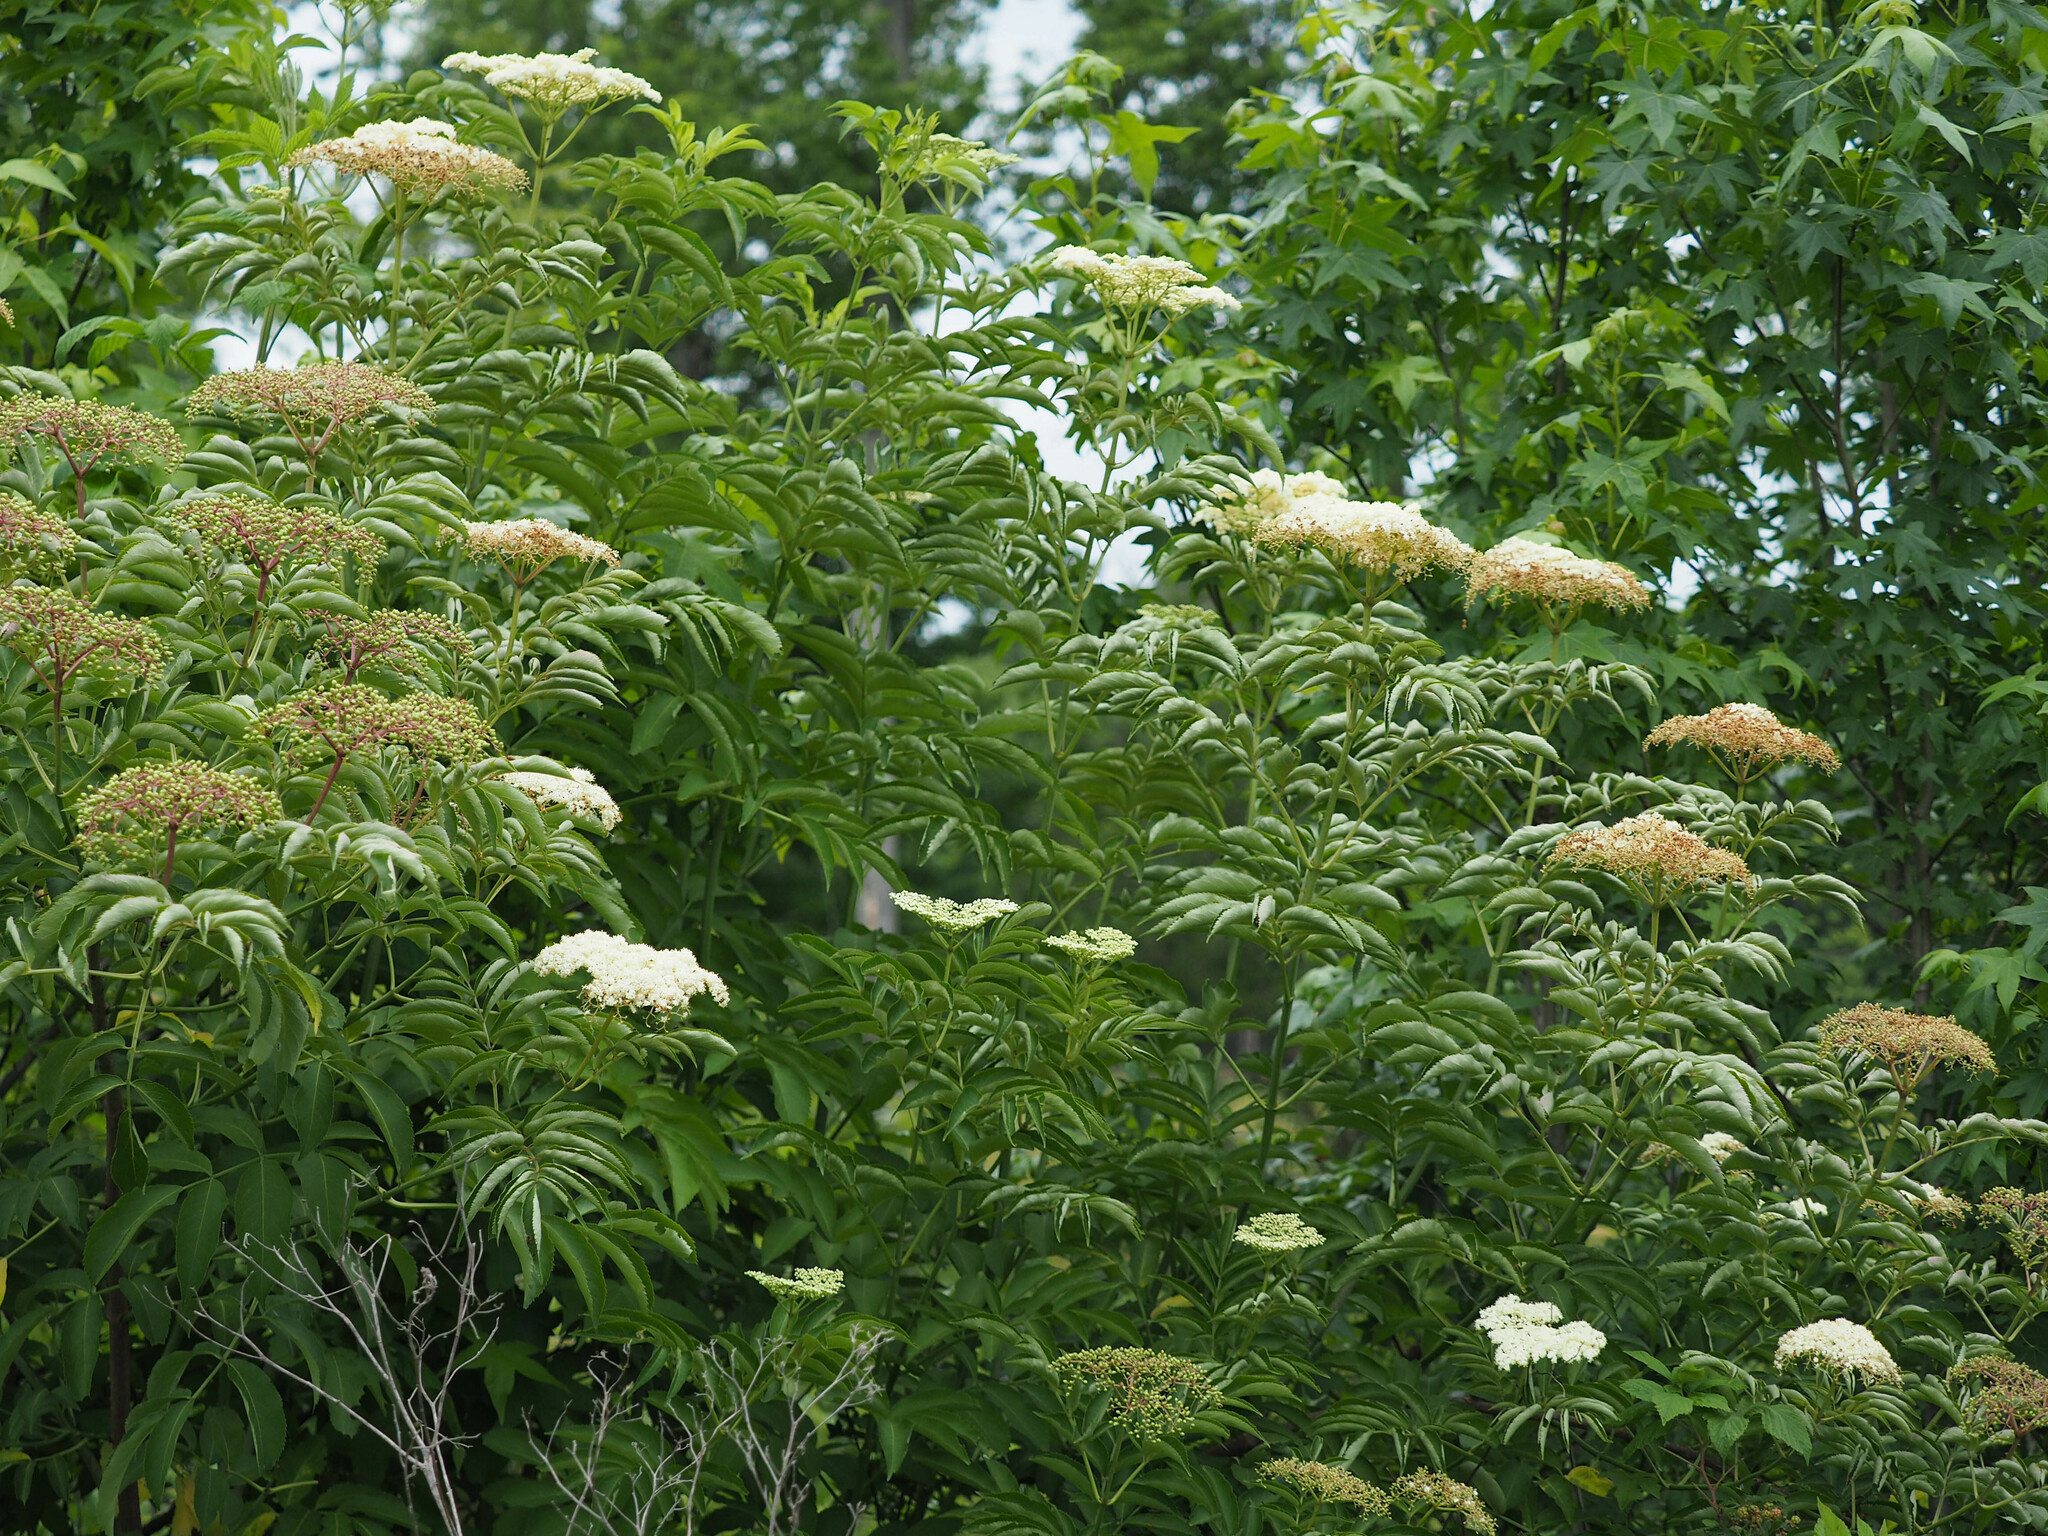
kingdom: Plantae
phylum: Tracheophyta
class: Magnoliopsida
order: Dipsacales
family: Viburnaceae
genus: Sambucus
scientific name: Sambucus canadensis
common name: American elder
